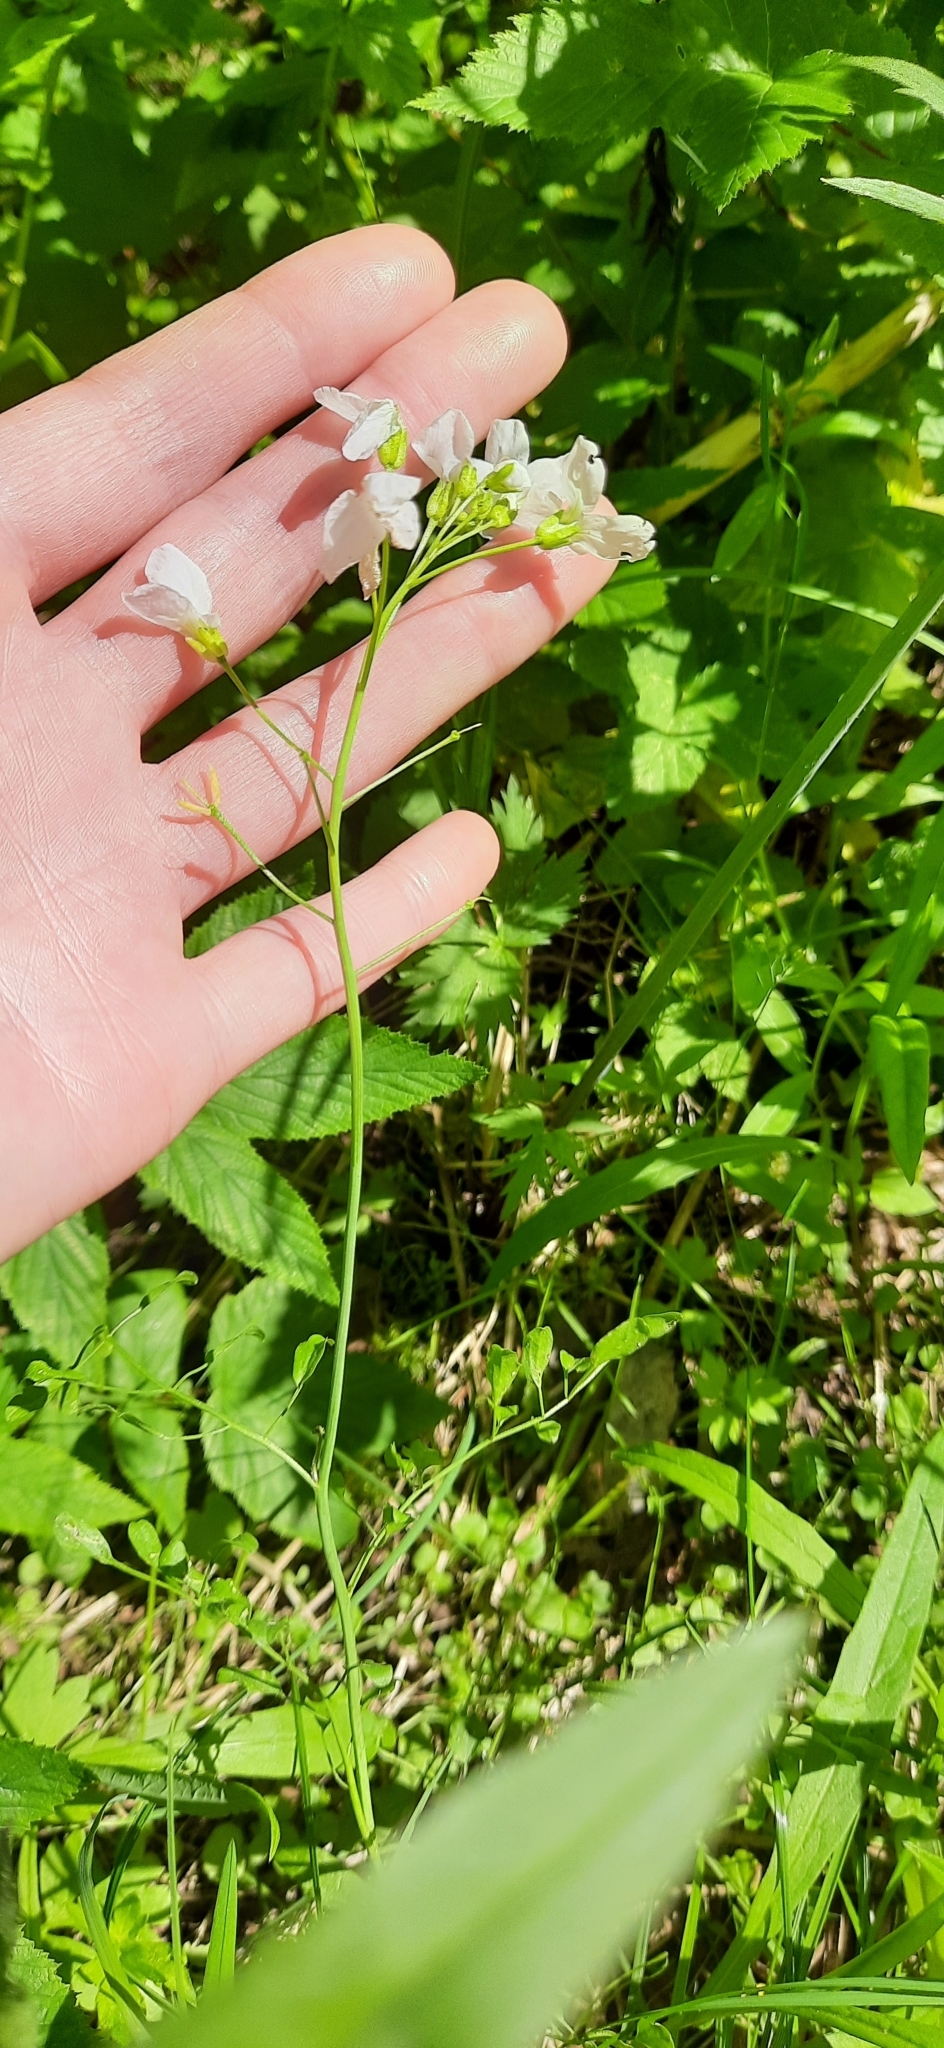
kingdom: Plantae
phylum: Tracheophyta
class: Magnoliopsida
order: Brassicales
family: Brassicaceae
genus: Cardamine
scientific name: Cardamine dentata
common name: Toothed bittercress
